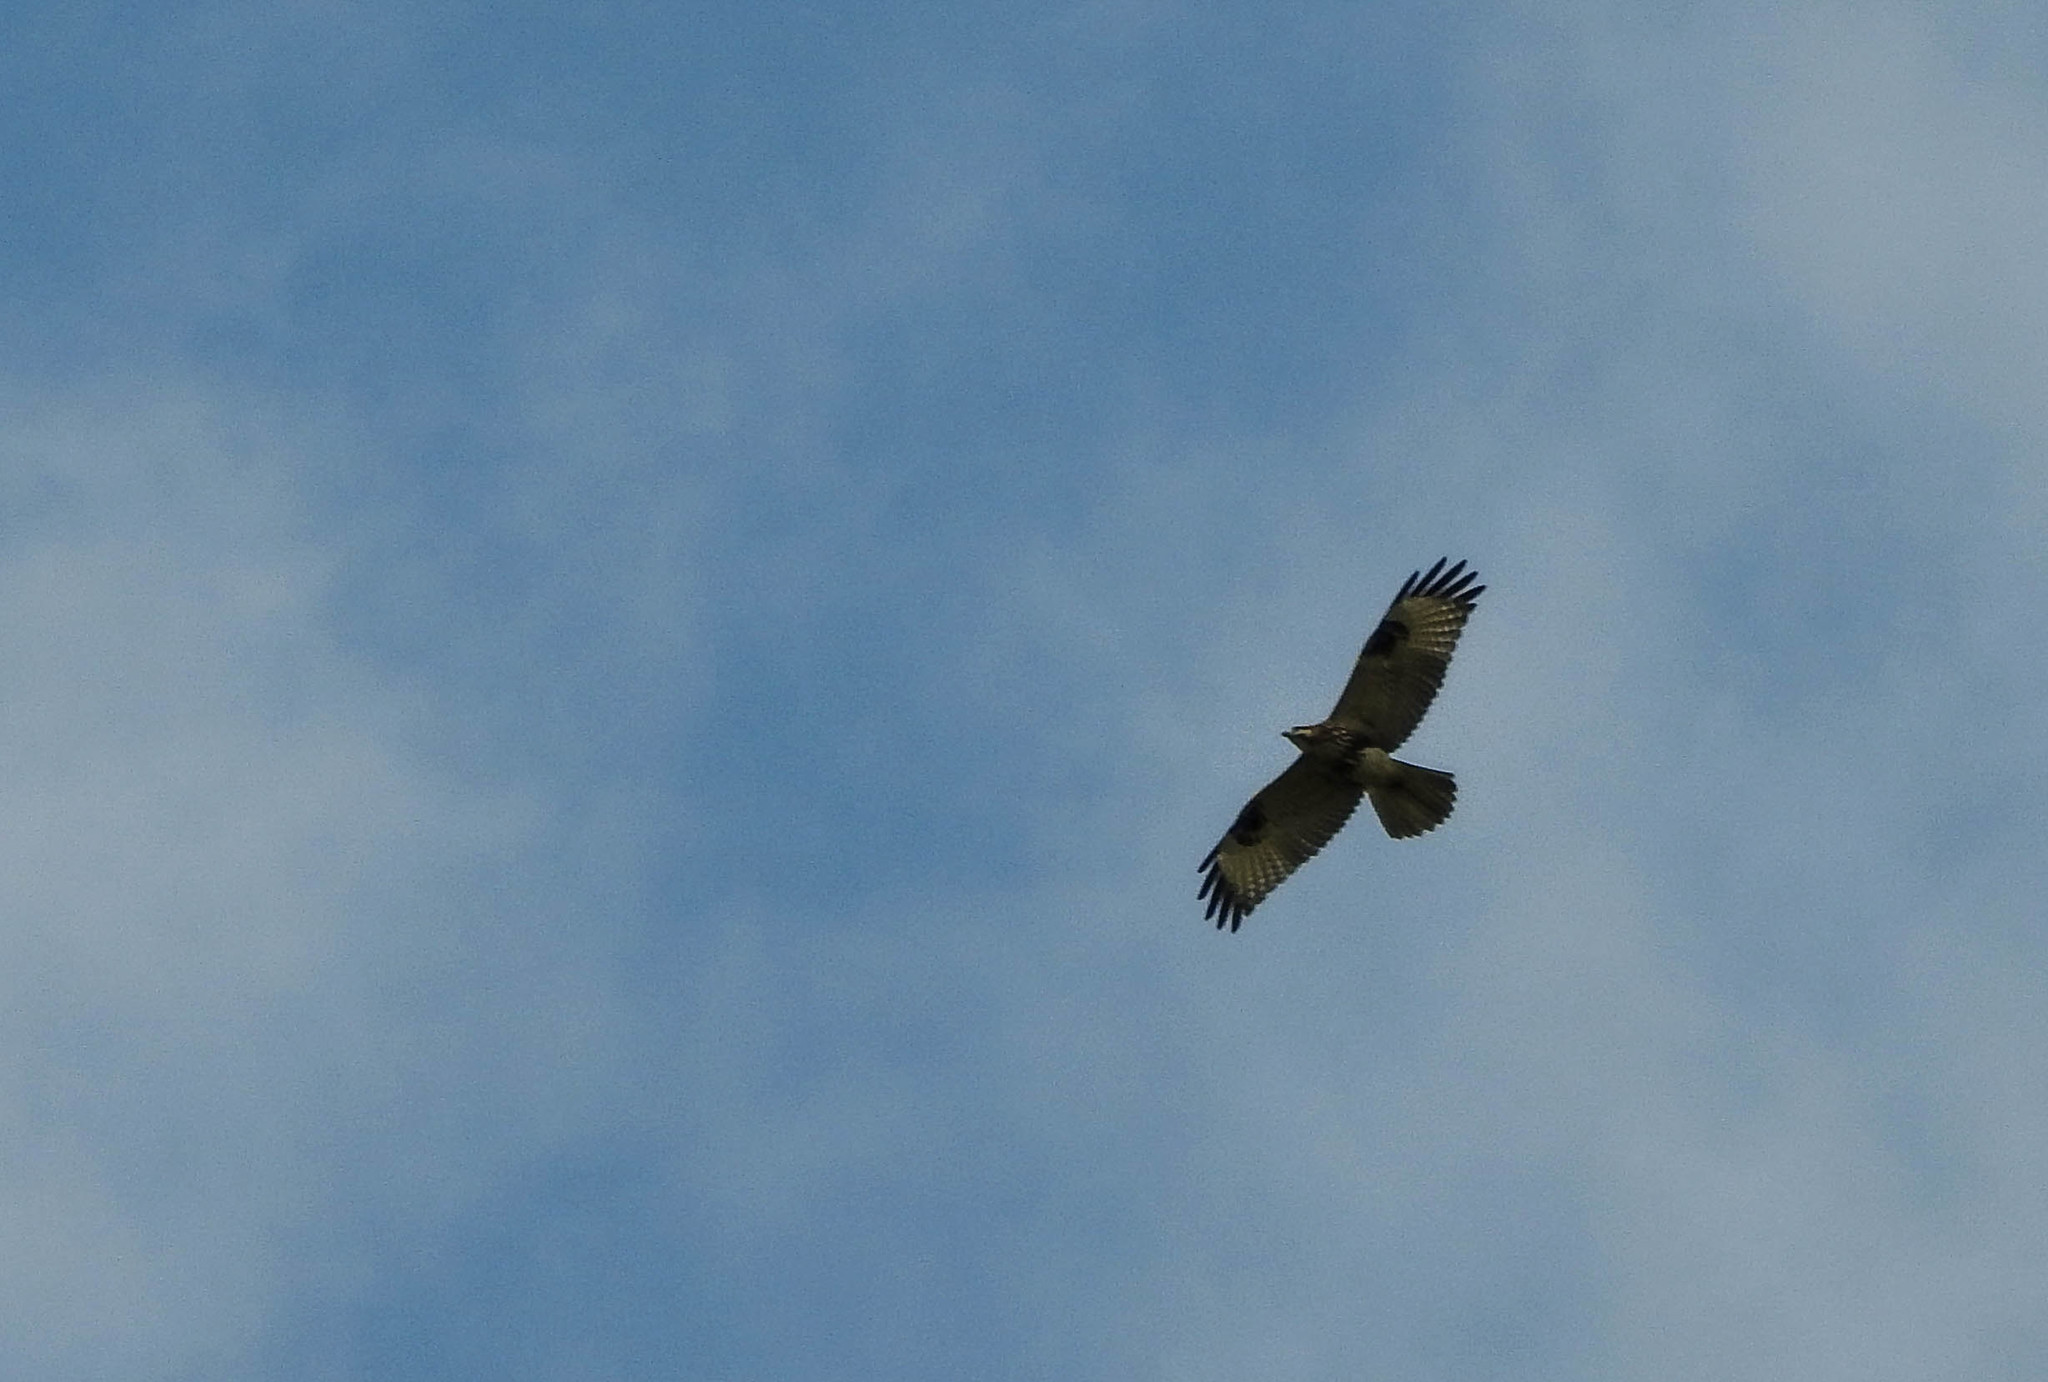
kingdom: Animalia
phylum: Chordata
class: Aves
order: Accipitriformes
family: Accipitridae
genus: Buteo
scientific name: Buteo hemilasius
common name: Upland buzzard
